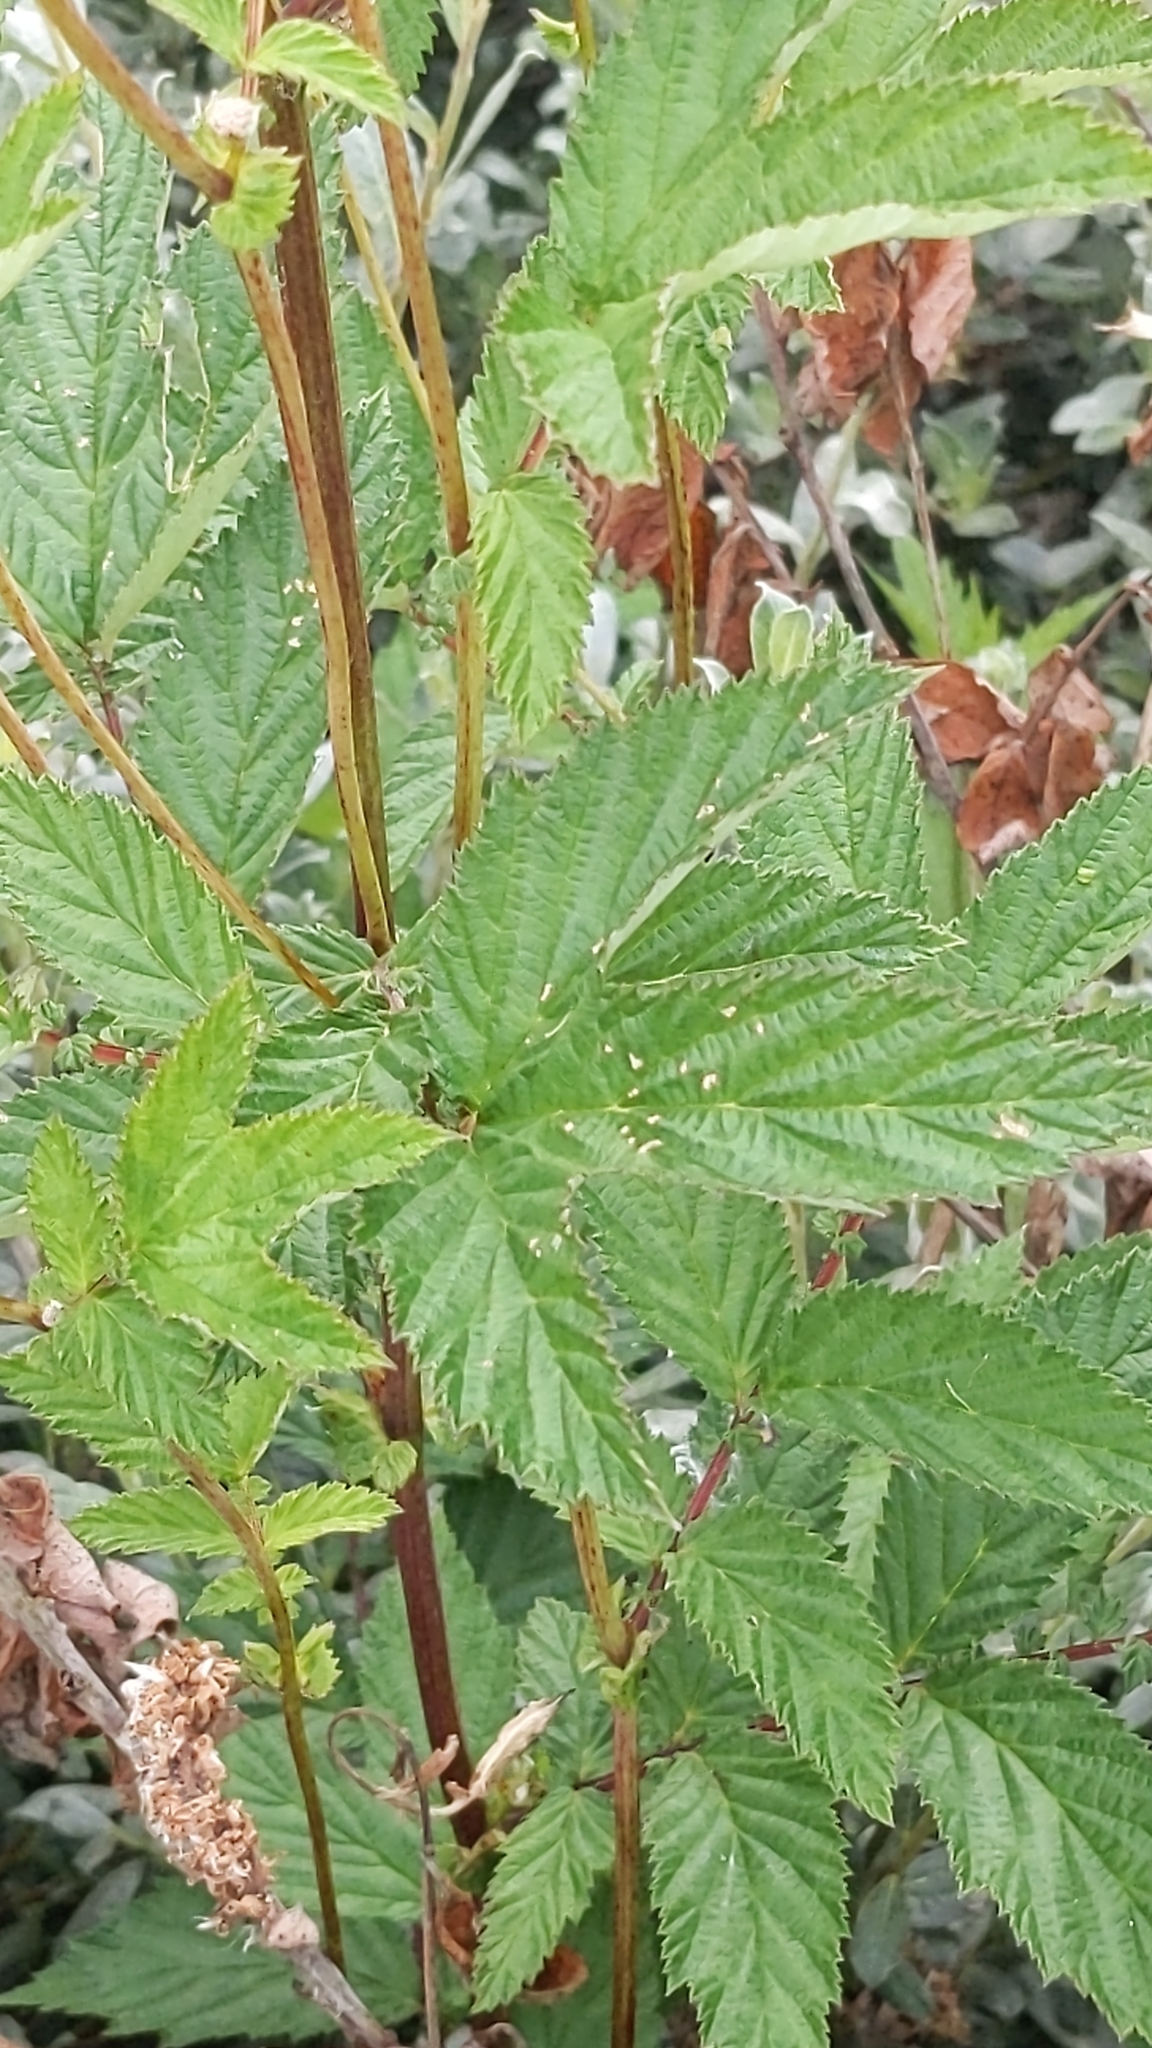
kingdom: Plantae
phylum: Tracheophyta
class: Magnoliopsida
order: Rosales
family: Rosaceae
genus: Filipendula
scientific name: Filipendula ulmaria
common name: Meadowsweet
